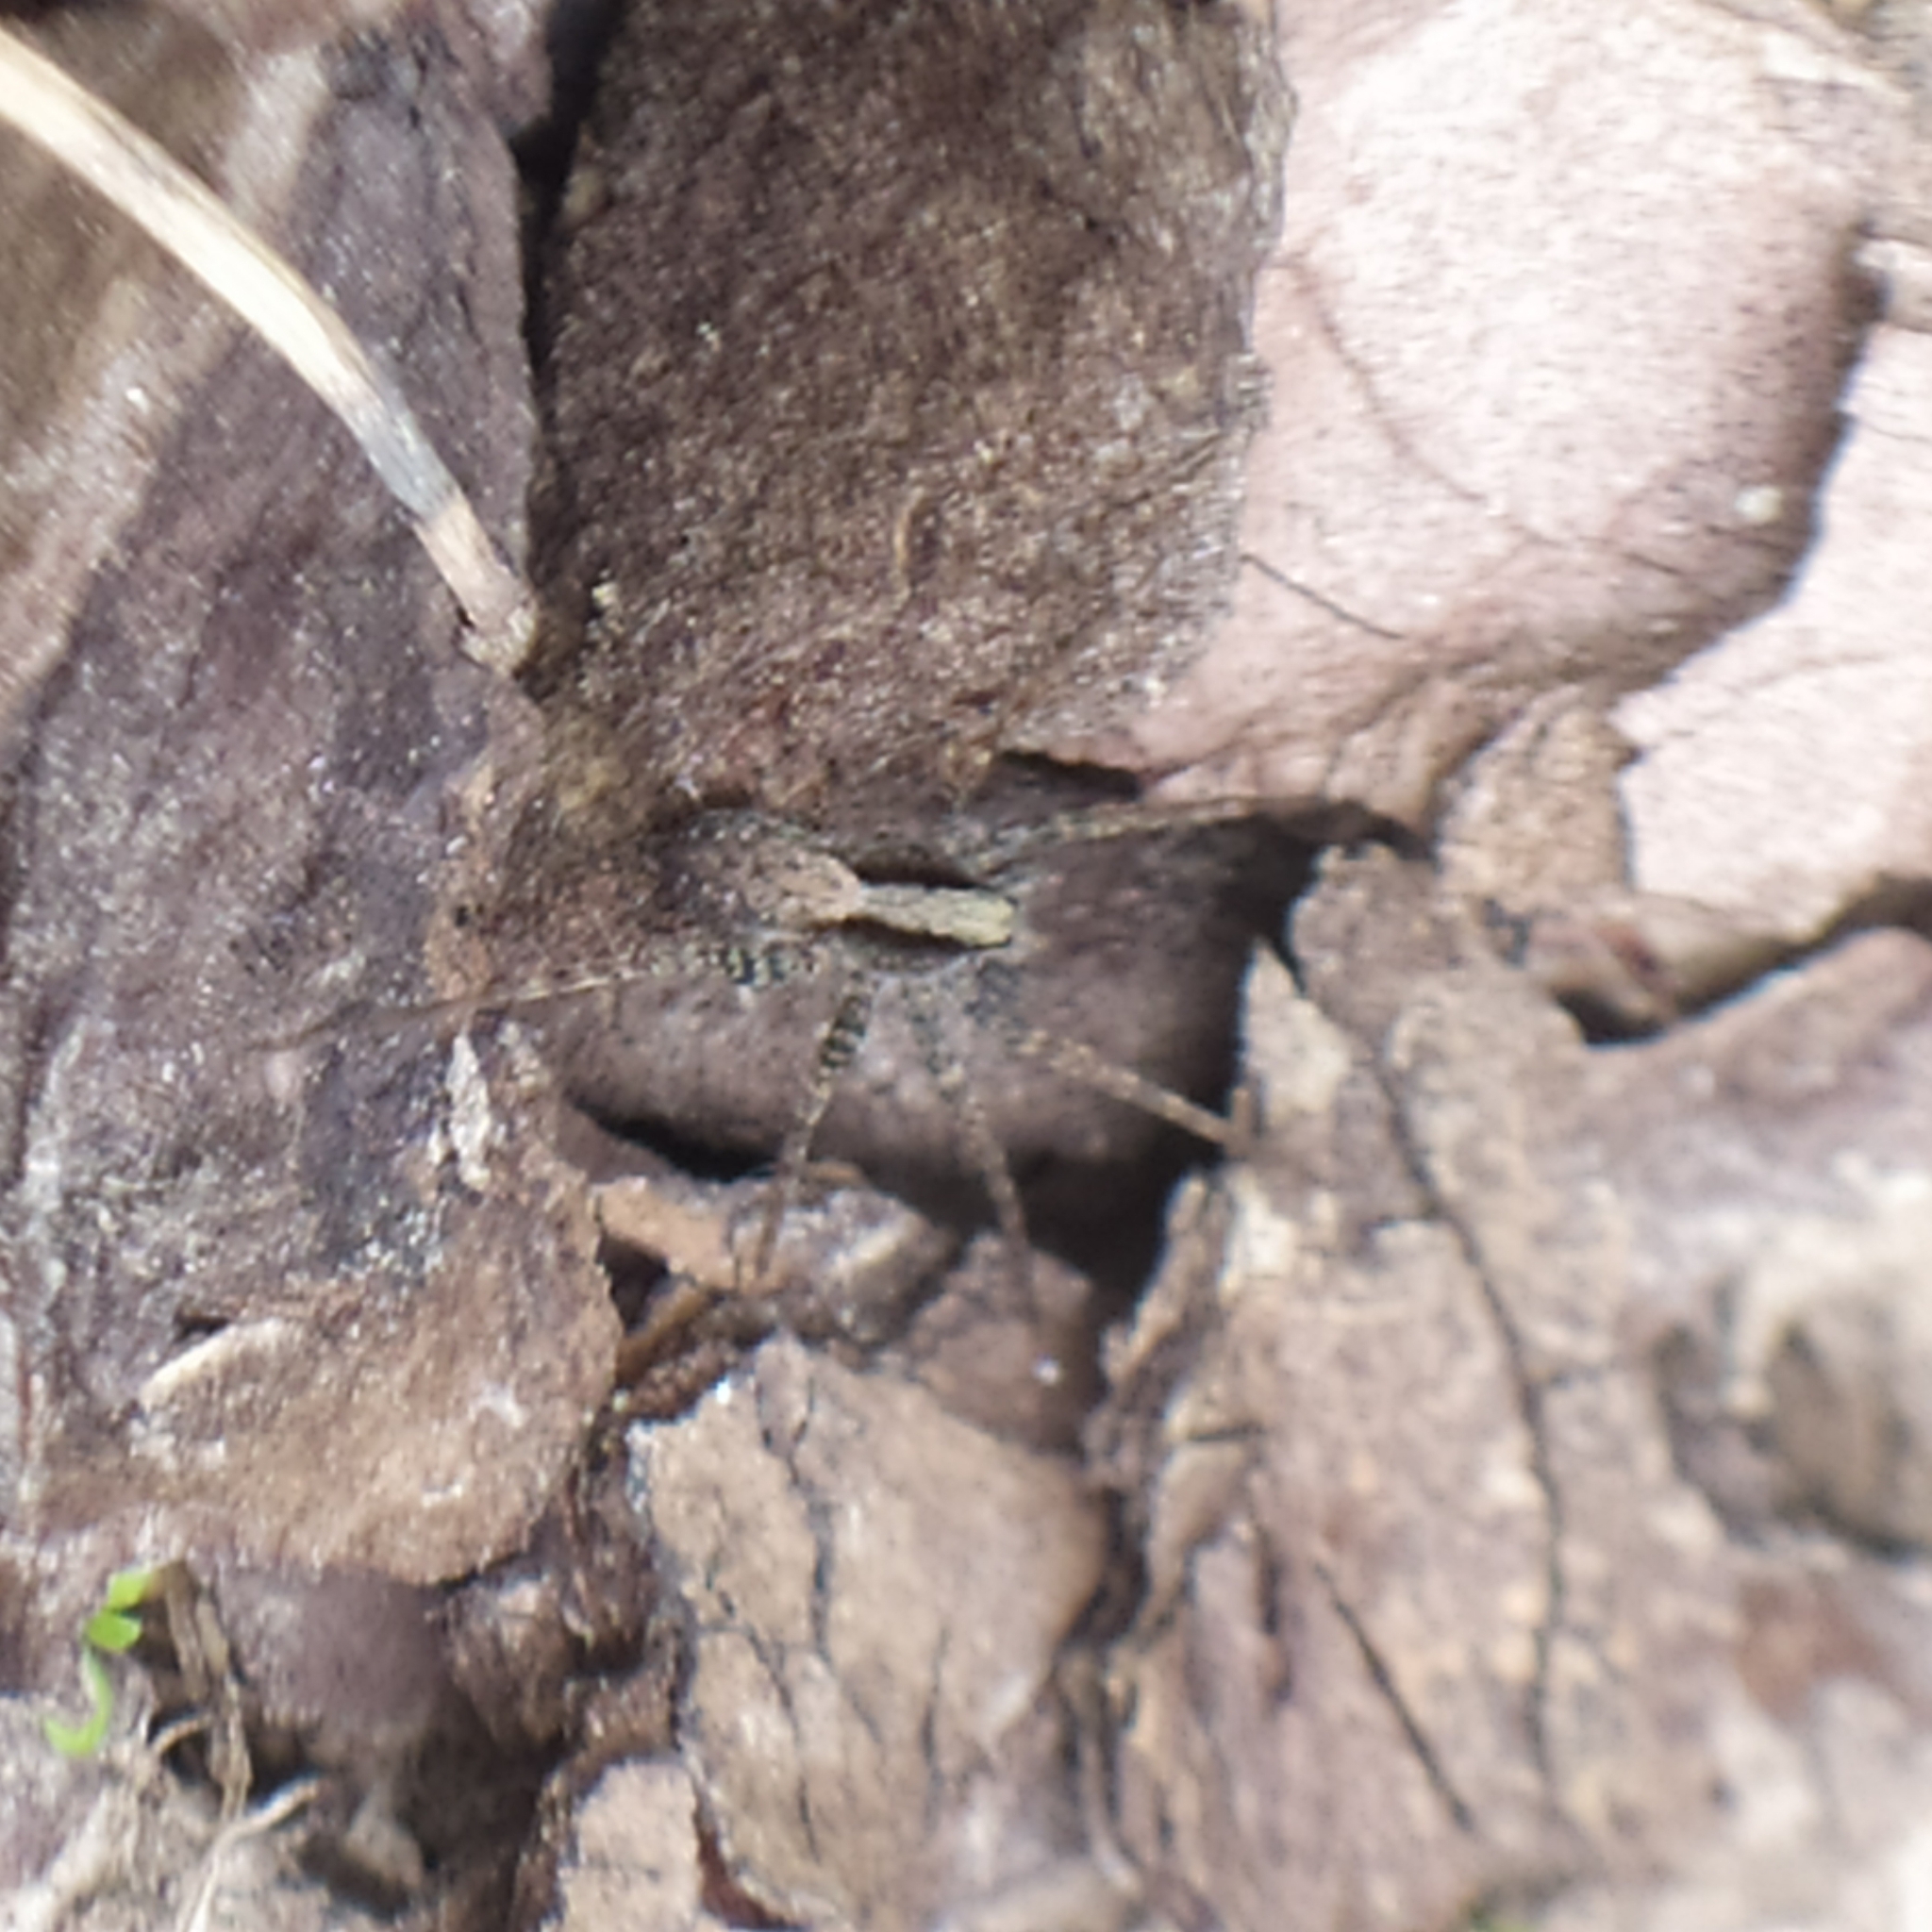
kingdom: Animalia
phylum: Arthropoda
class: Arachnida
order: Araneae
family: Lycosidae
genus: Pardosa
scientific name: Pardosa
